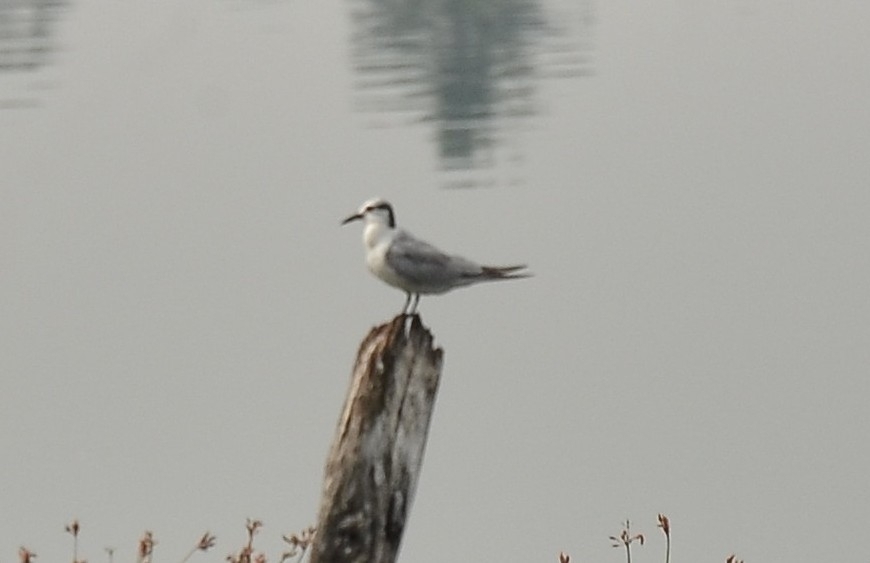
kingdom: Animalia
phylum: Chordata
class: Aves
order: Charadriiformes
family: Laridae
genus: Chlidonias
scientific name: Chlidonias hybrida
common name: Whiskered tern
